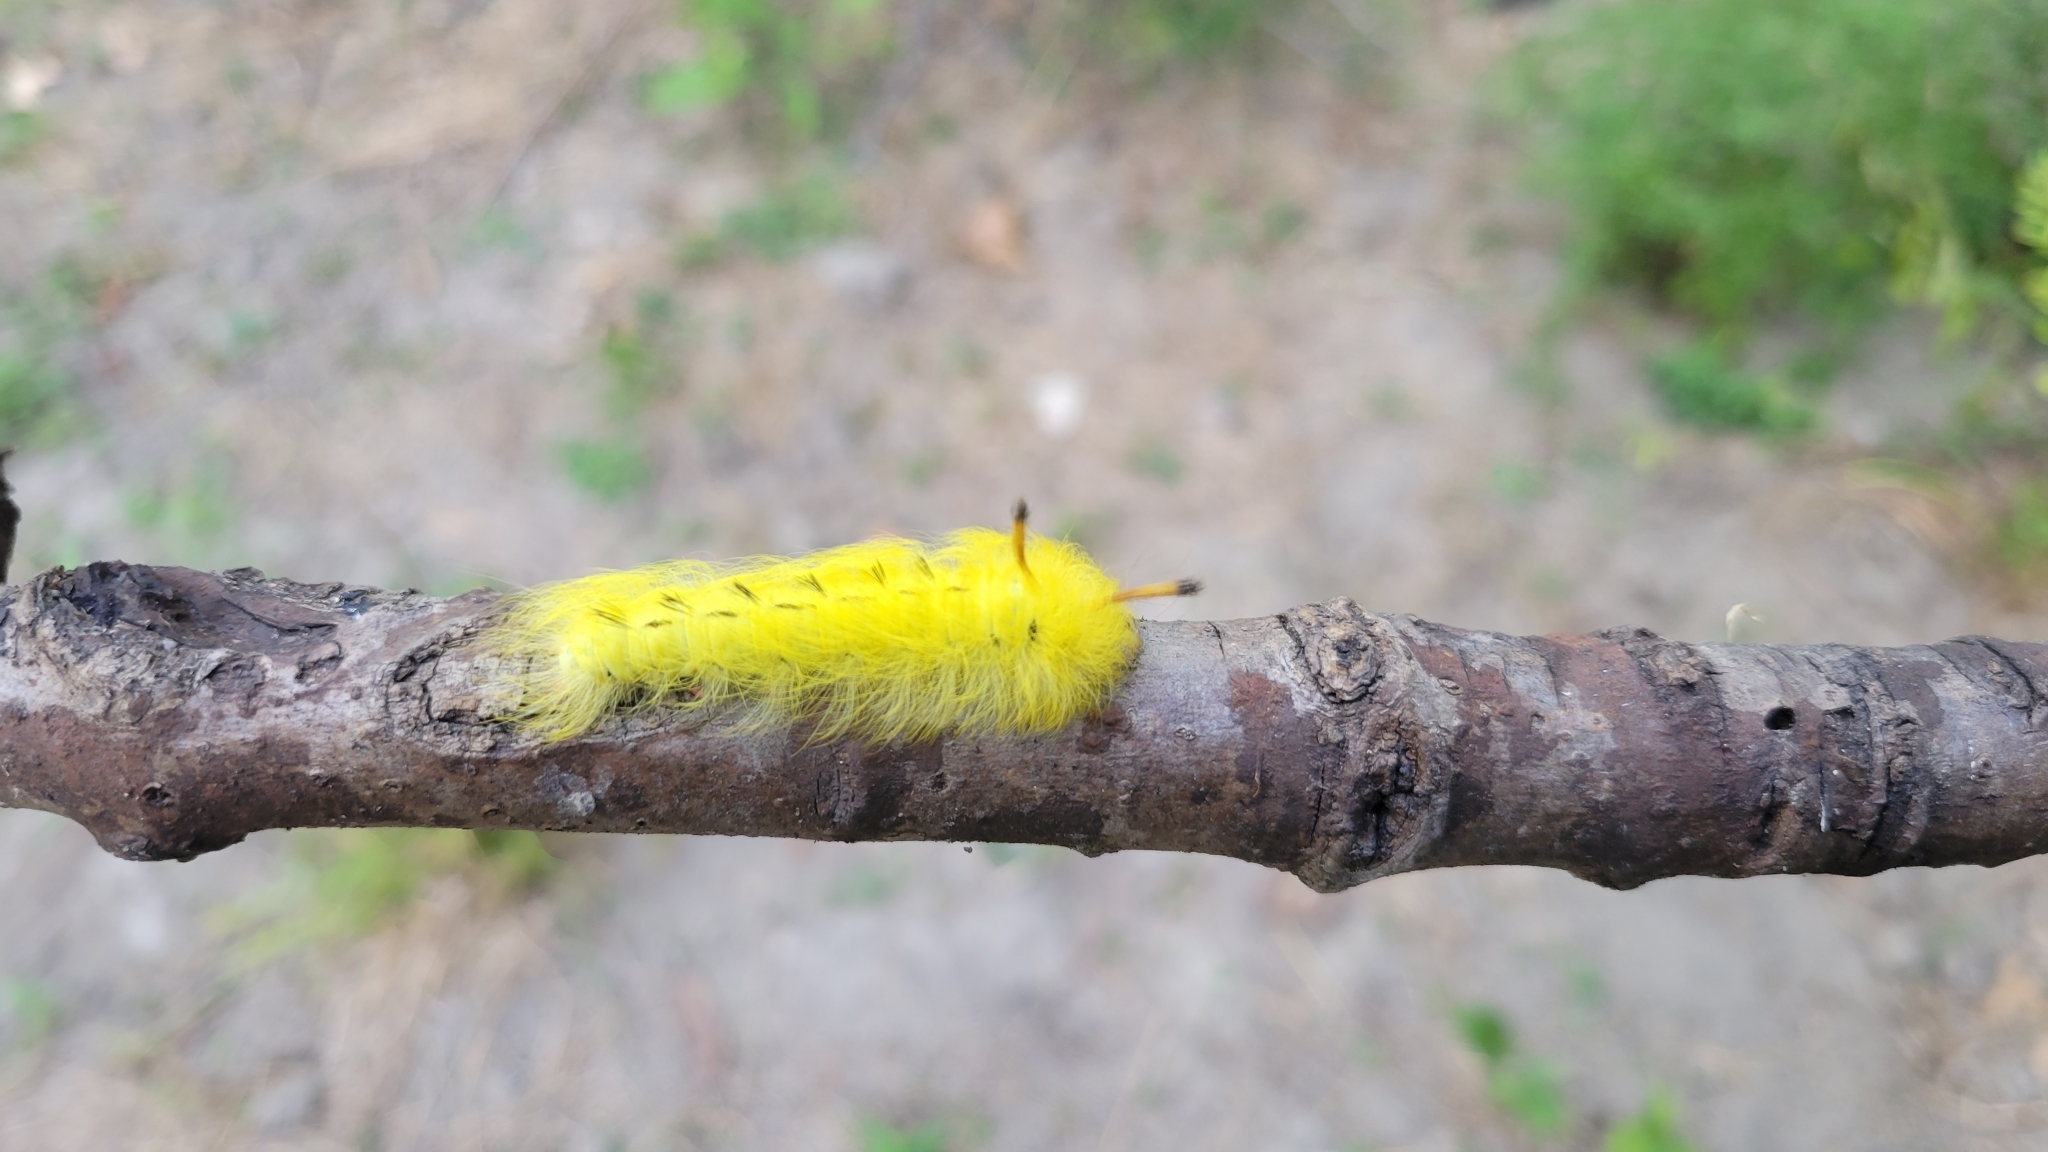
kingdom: Animalia
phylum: Arthropoda
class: Insecta
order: Lepidoptera
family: Apatelodidae
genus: Hygrochroa
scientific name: Hygrochroa Apatelodes torrefacta
